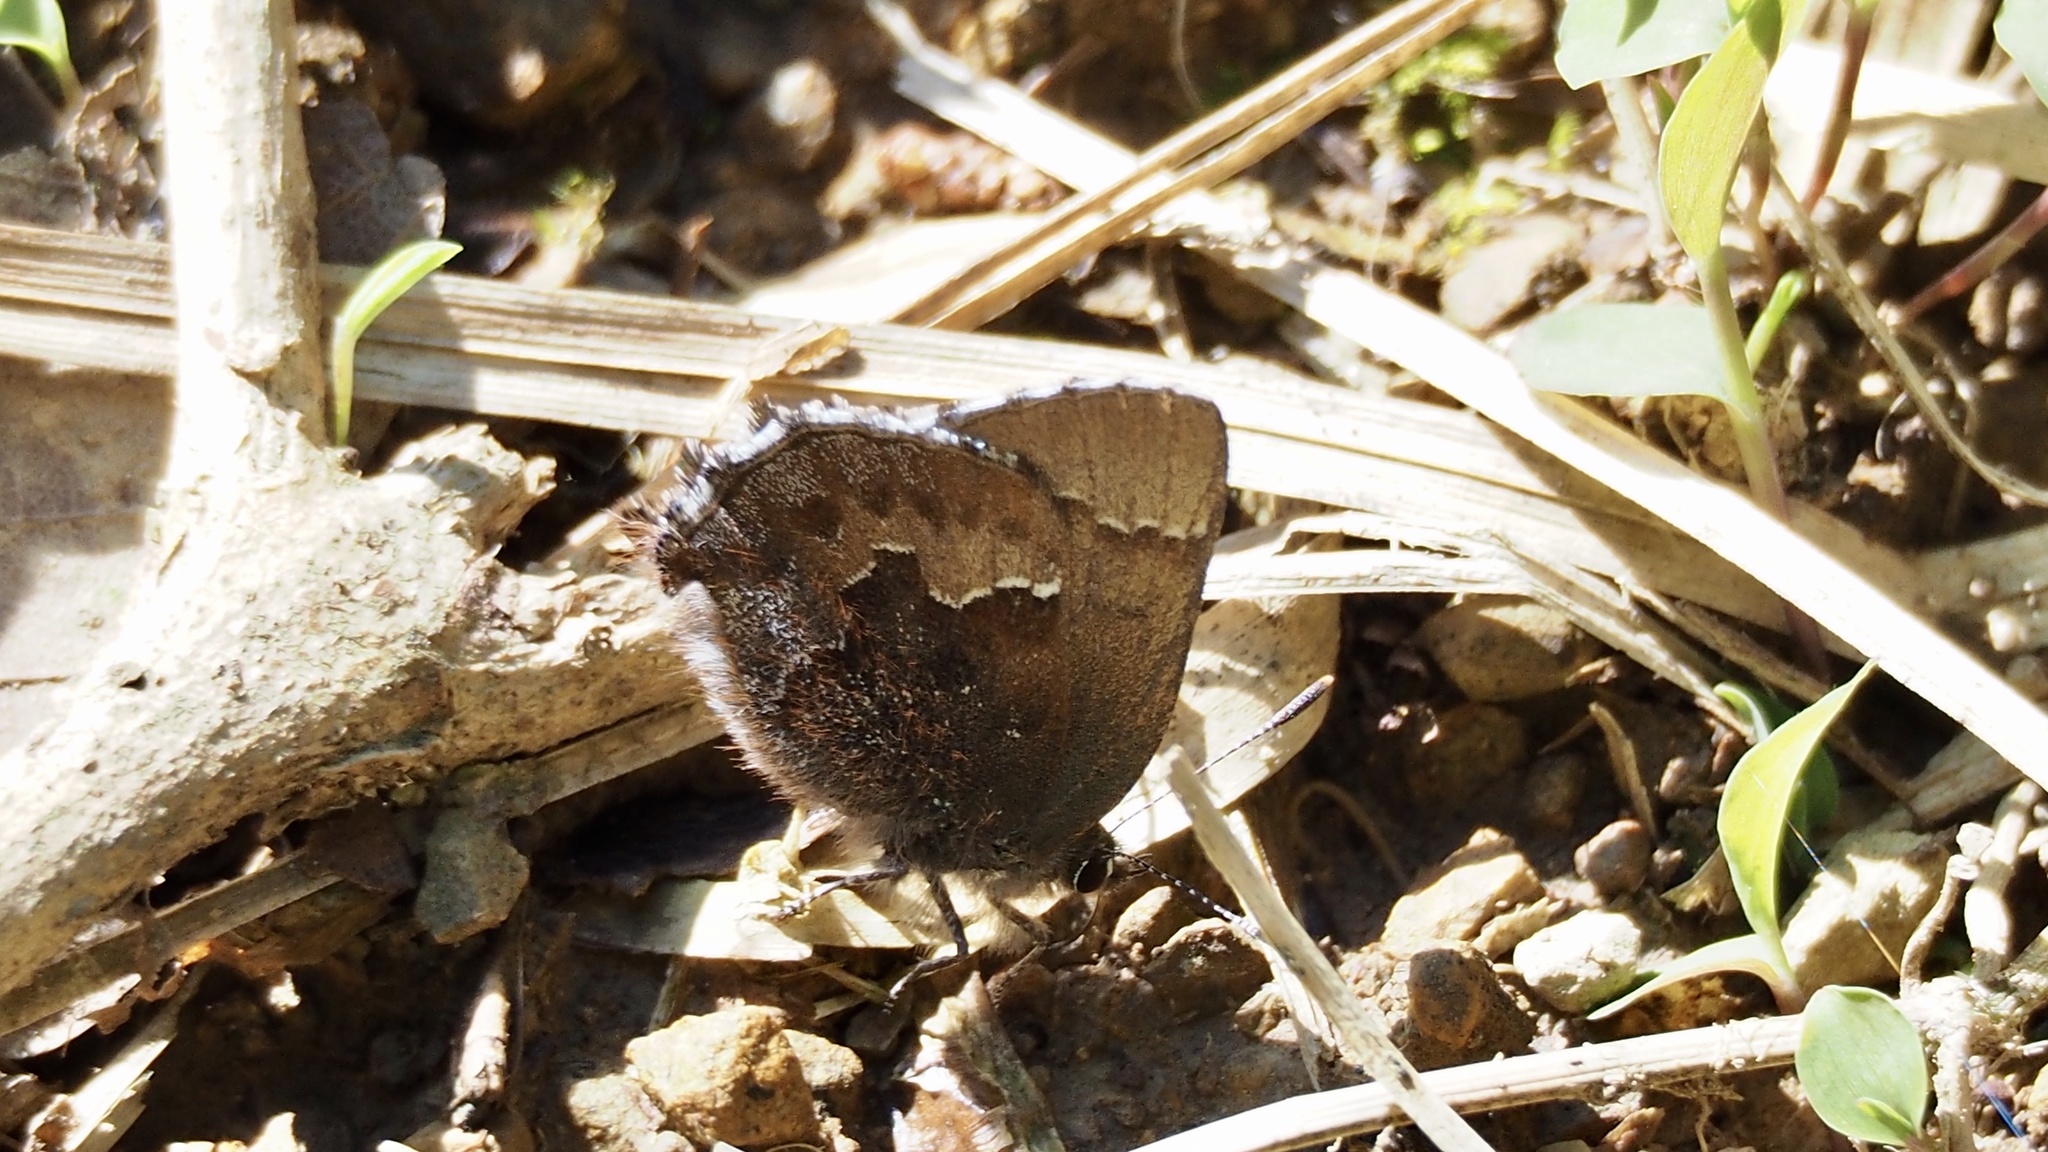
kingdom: Animalia
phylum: Arthropoda
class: Insecta
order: Lepidoptera
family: Lycaenidae
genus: Ginzia
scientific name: Ginzia frivaldsky
